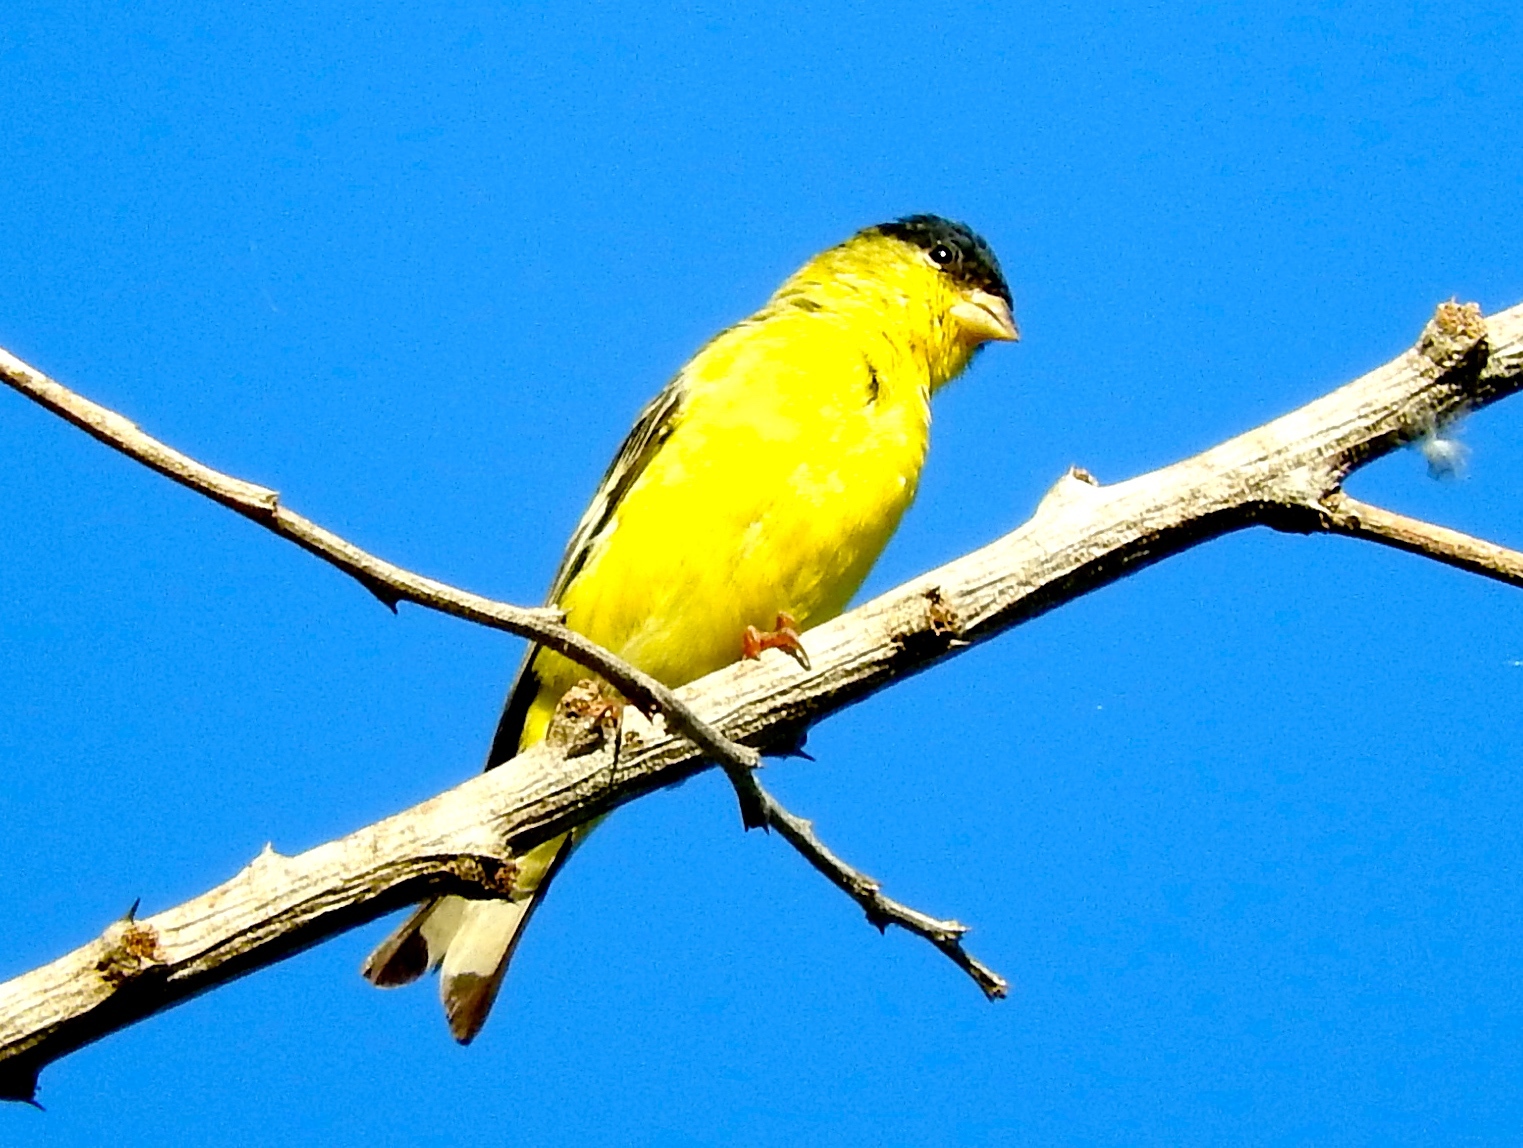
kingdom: Animalia
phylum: Chordata
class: Aves
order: Passeriformes
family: Fringillidae
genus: Spinus
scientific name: Spinus psaltria
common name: Lesser goldfinch
